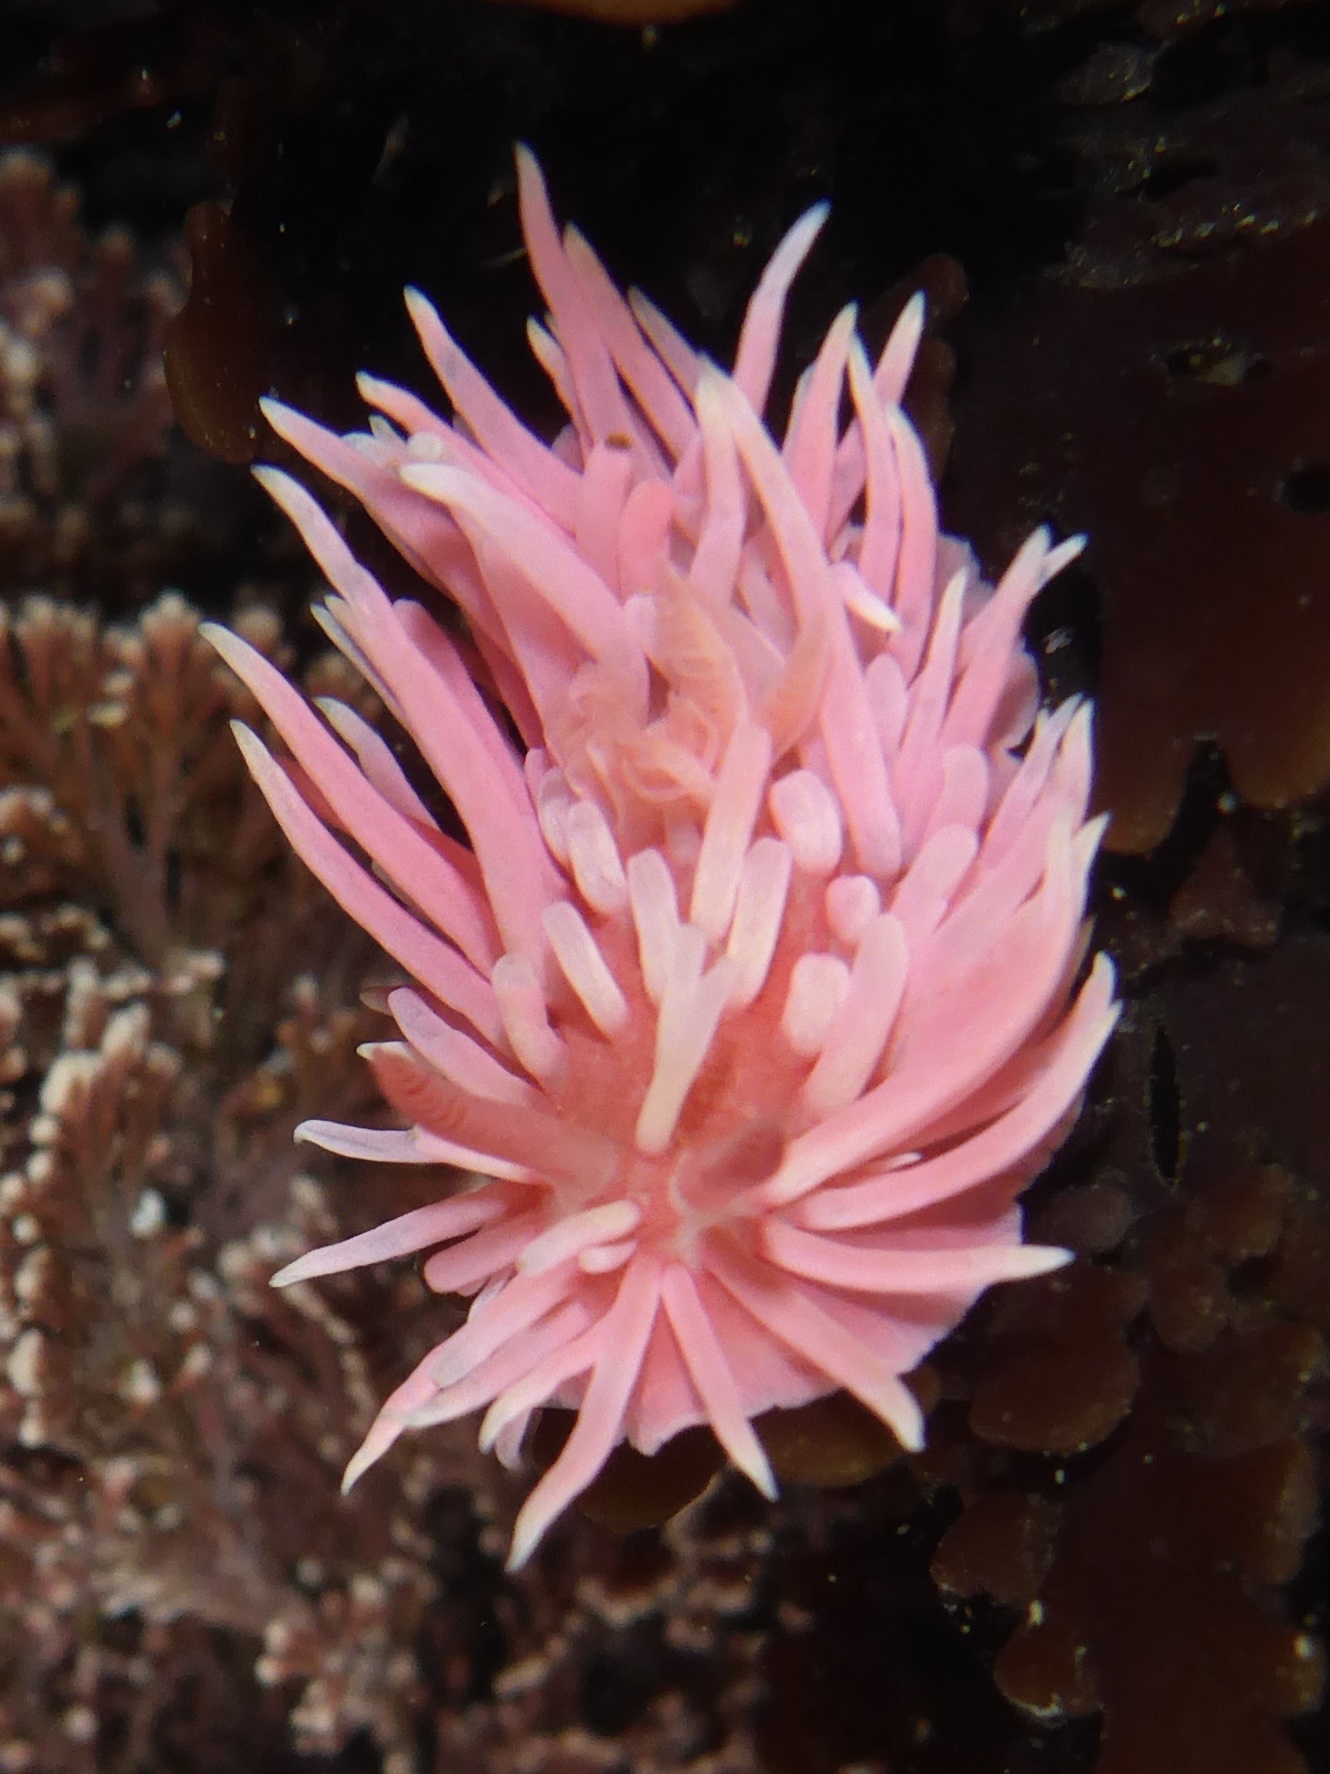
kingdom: Animalia
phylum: Mollusca
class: Gastropoda
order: Nudibranchia
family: Goniodorididae
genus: Okenia
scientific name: Okenia
